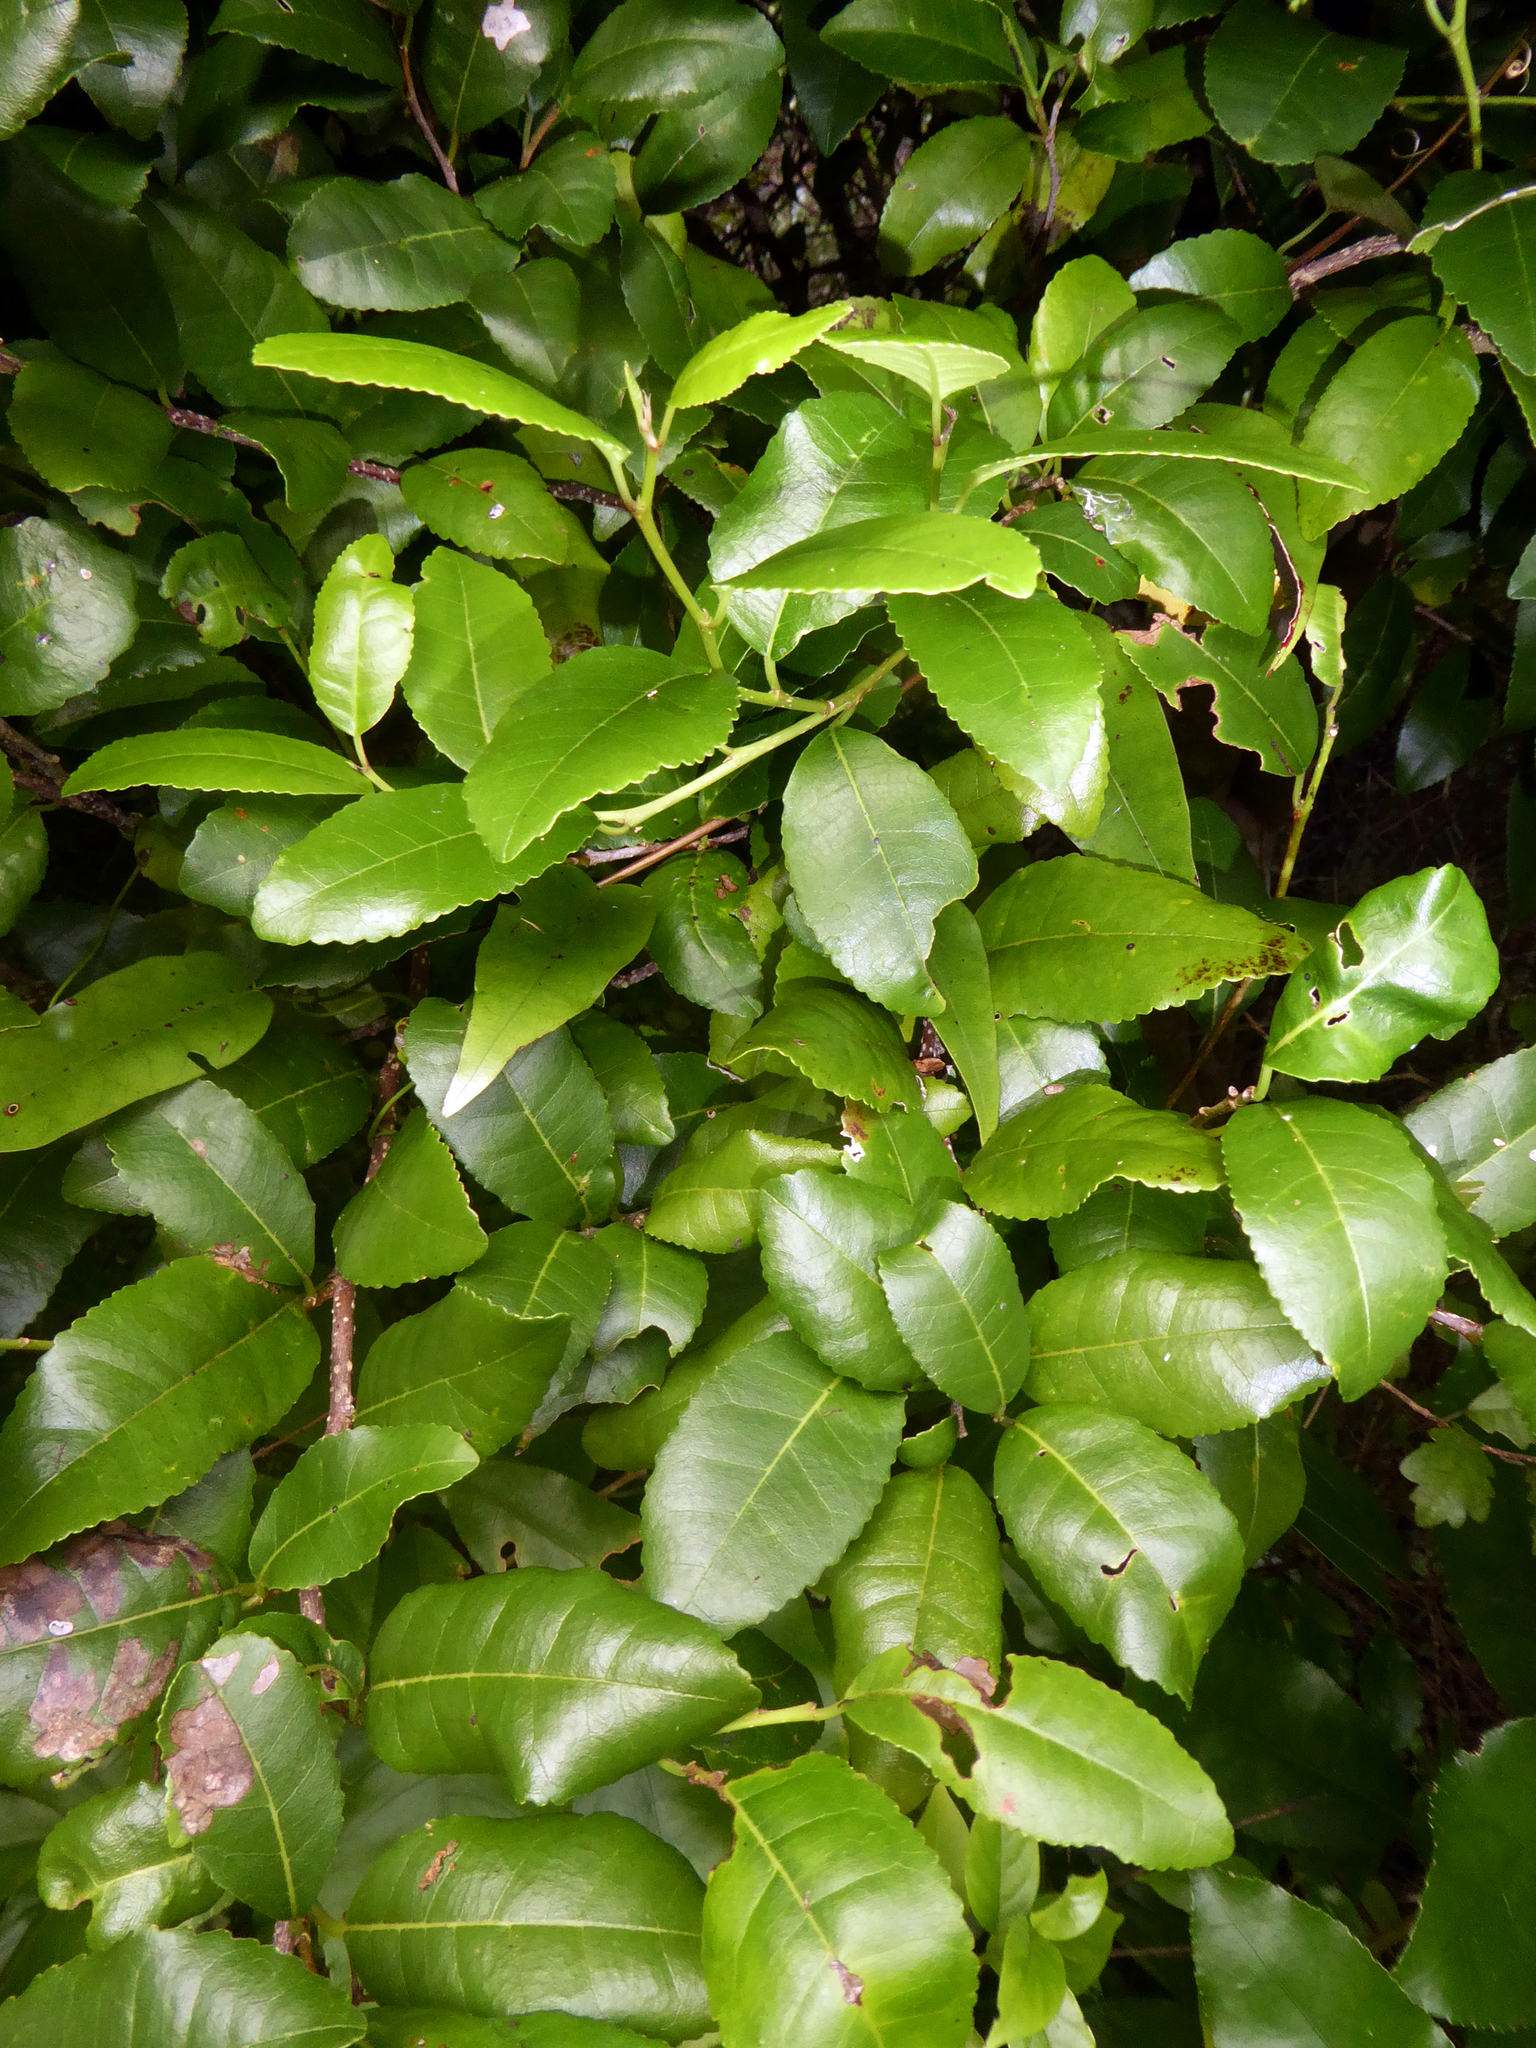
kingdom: Plantae
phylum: Tracheophyta
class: Magnoliopsida
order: Rosales
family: Moraceae
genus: Paratrophis
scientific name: Paratrophis banksii
